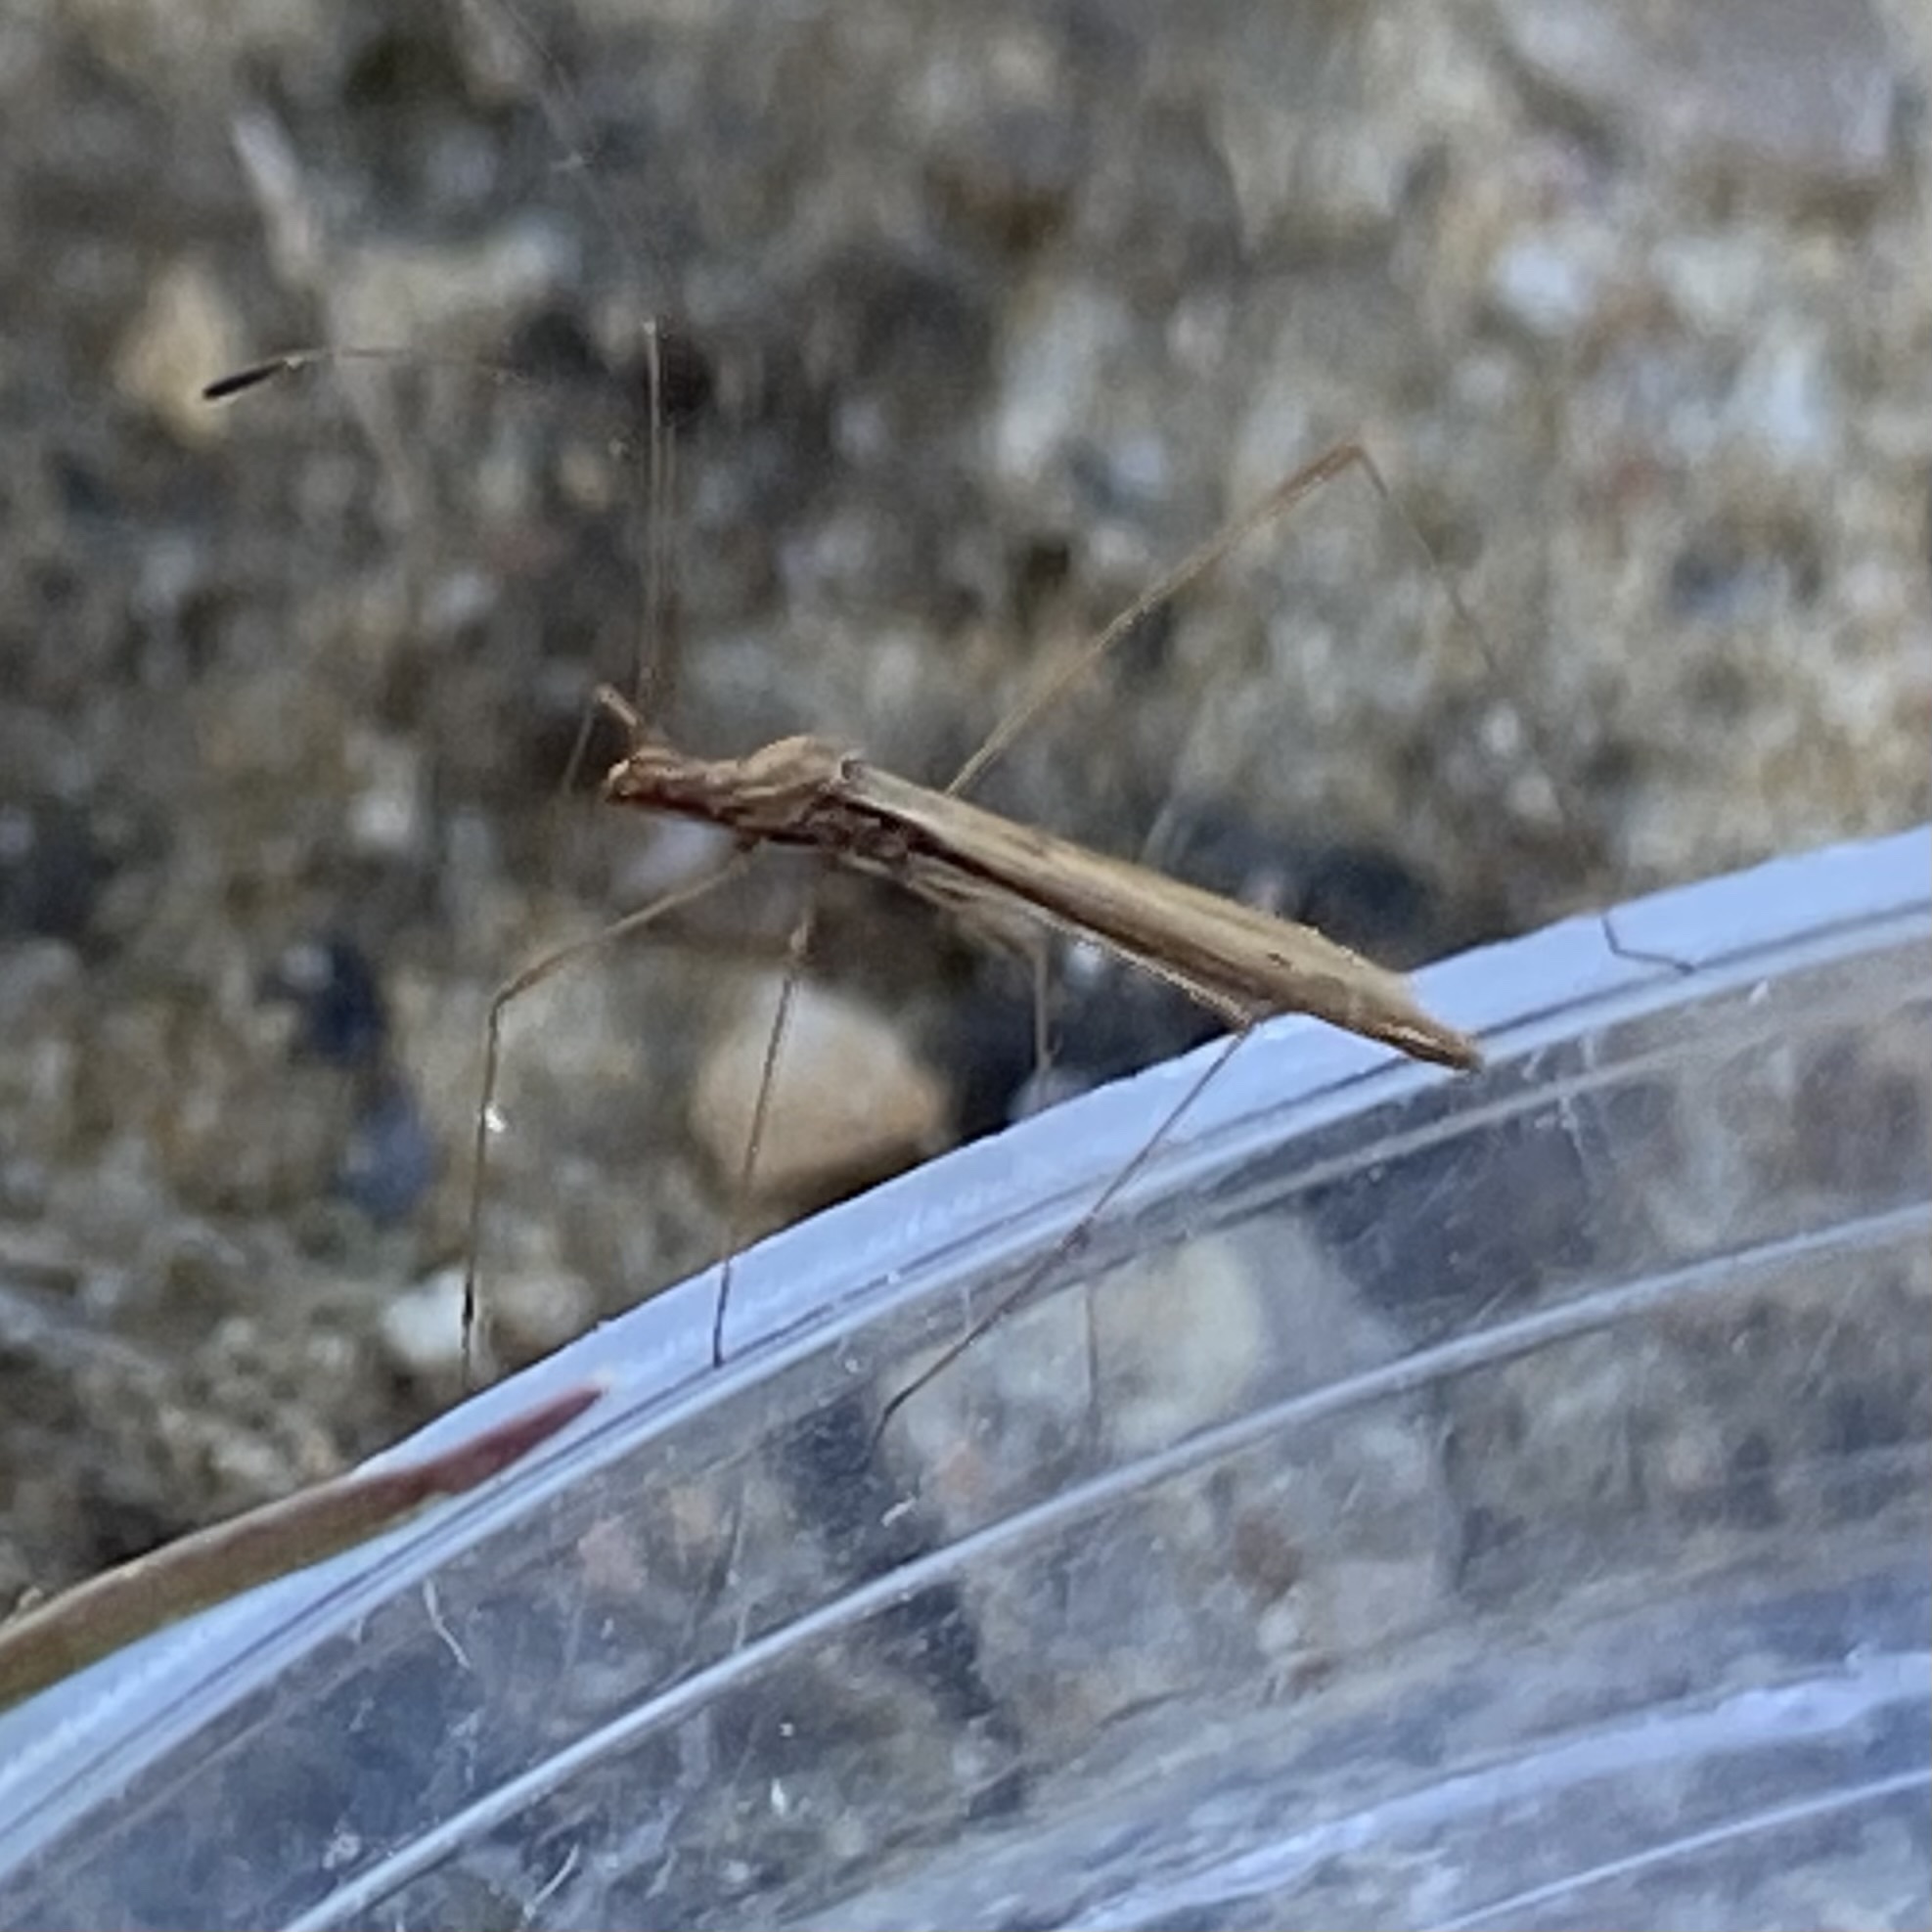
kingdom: Animalia
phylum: Arthropoda
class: Insecta
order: Hemiptera
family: Berytidae
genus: Jalysus
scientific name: Jalysus
